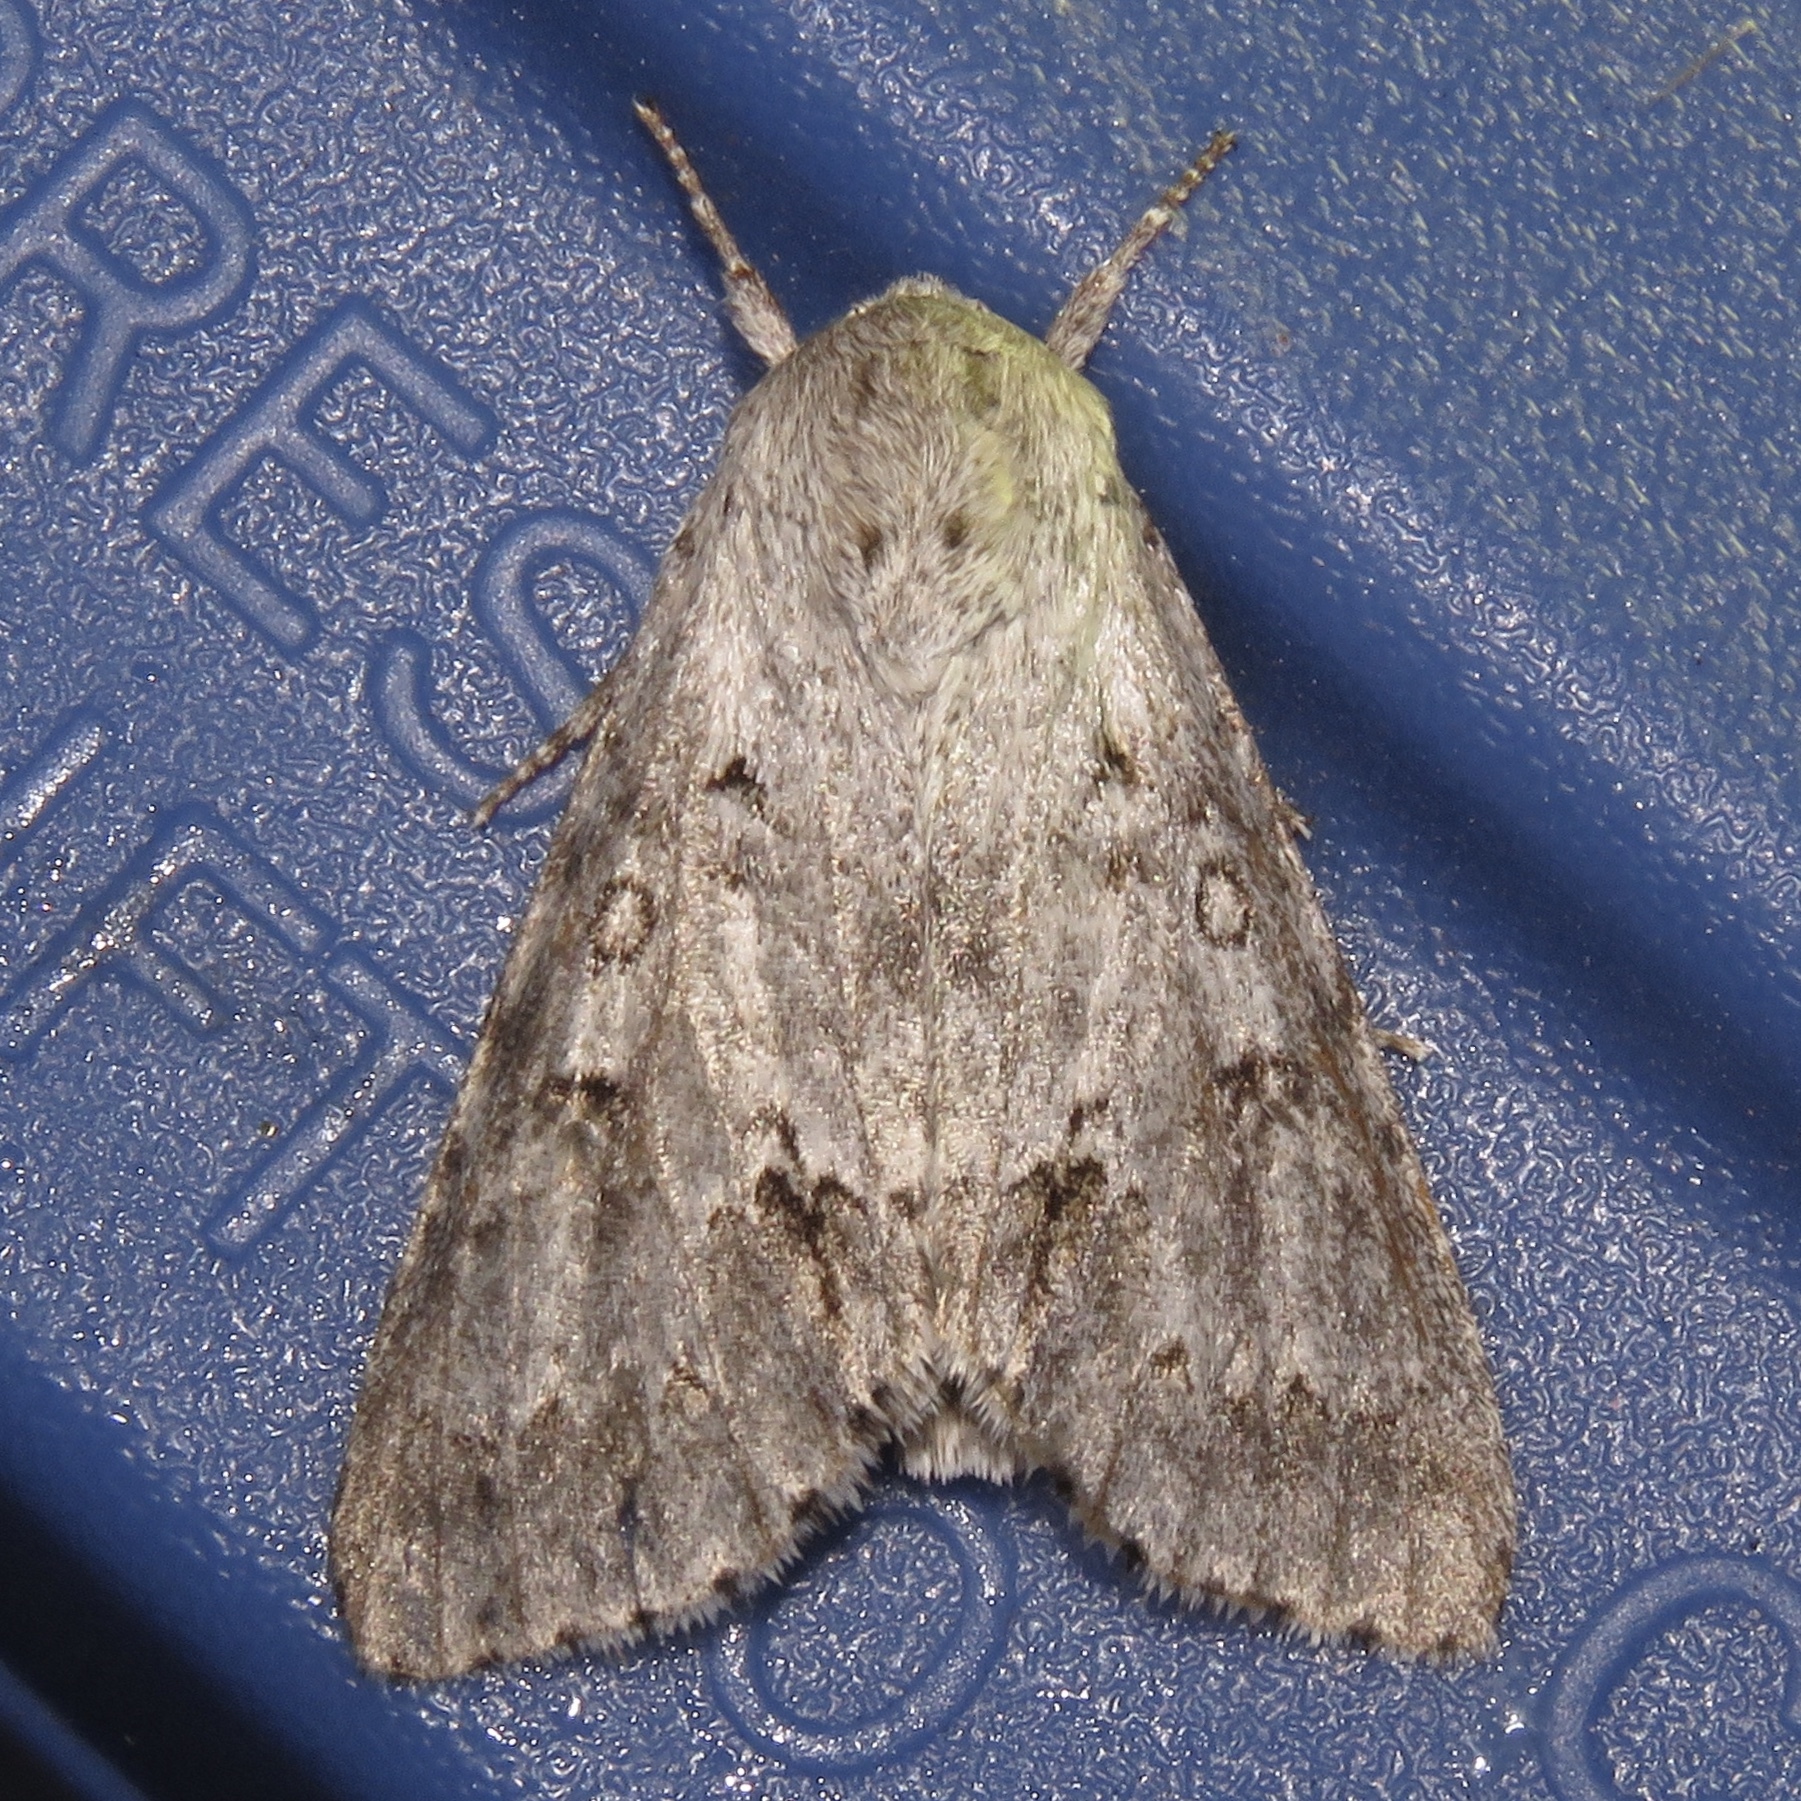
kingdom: Animalia
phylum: Arthropoda
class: Insecta
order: Lepidoptera
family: Noctuidae
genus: Acronicta
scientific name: Acronicta insita
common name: Large gray dagger
